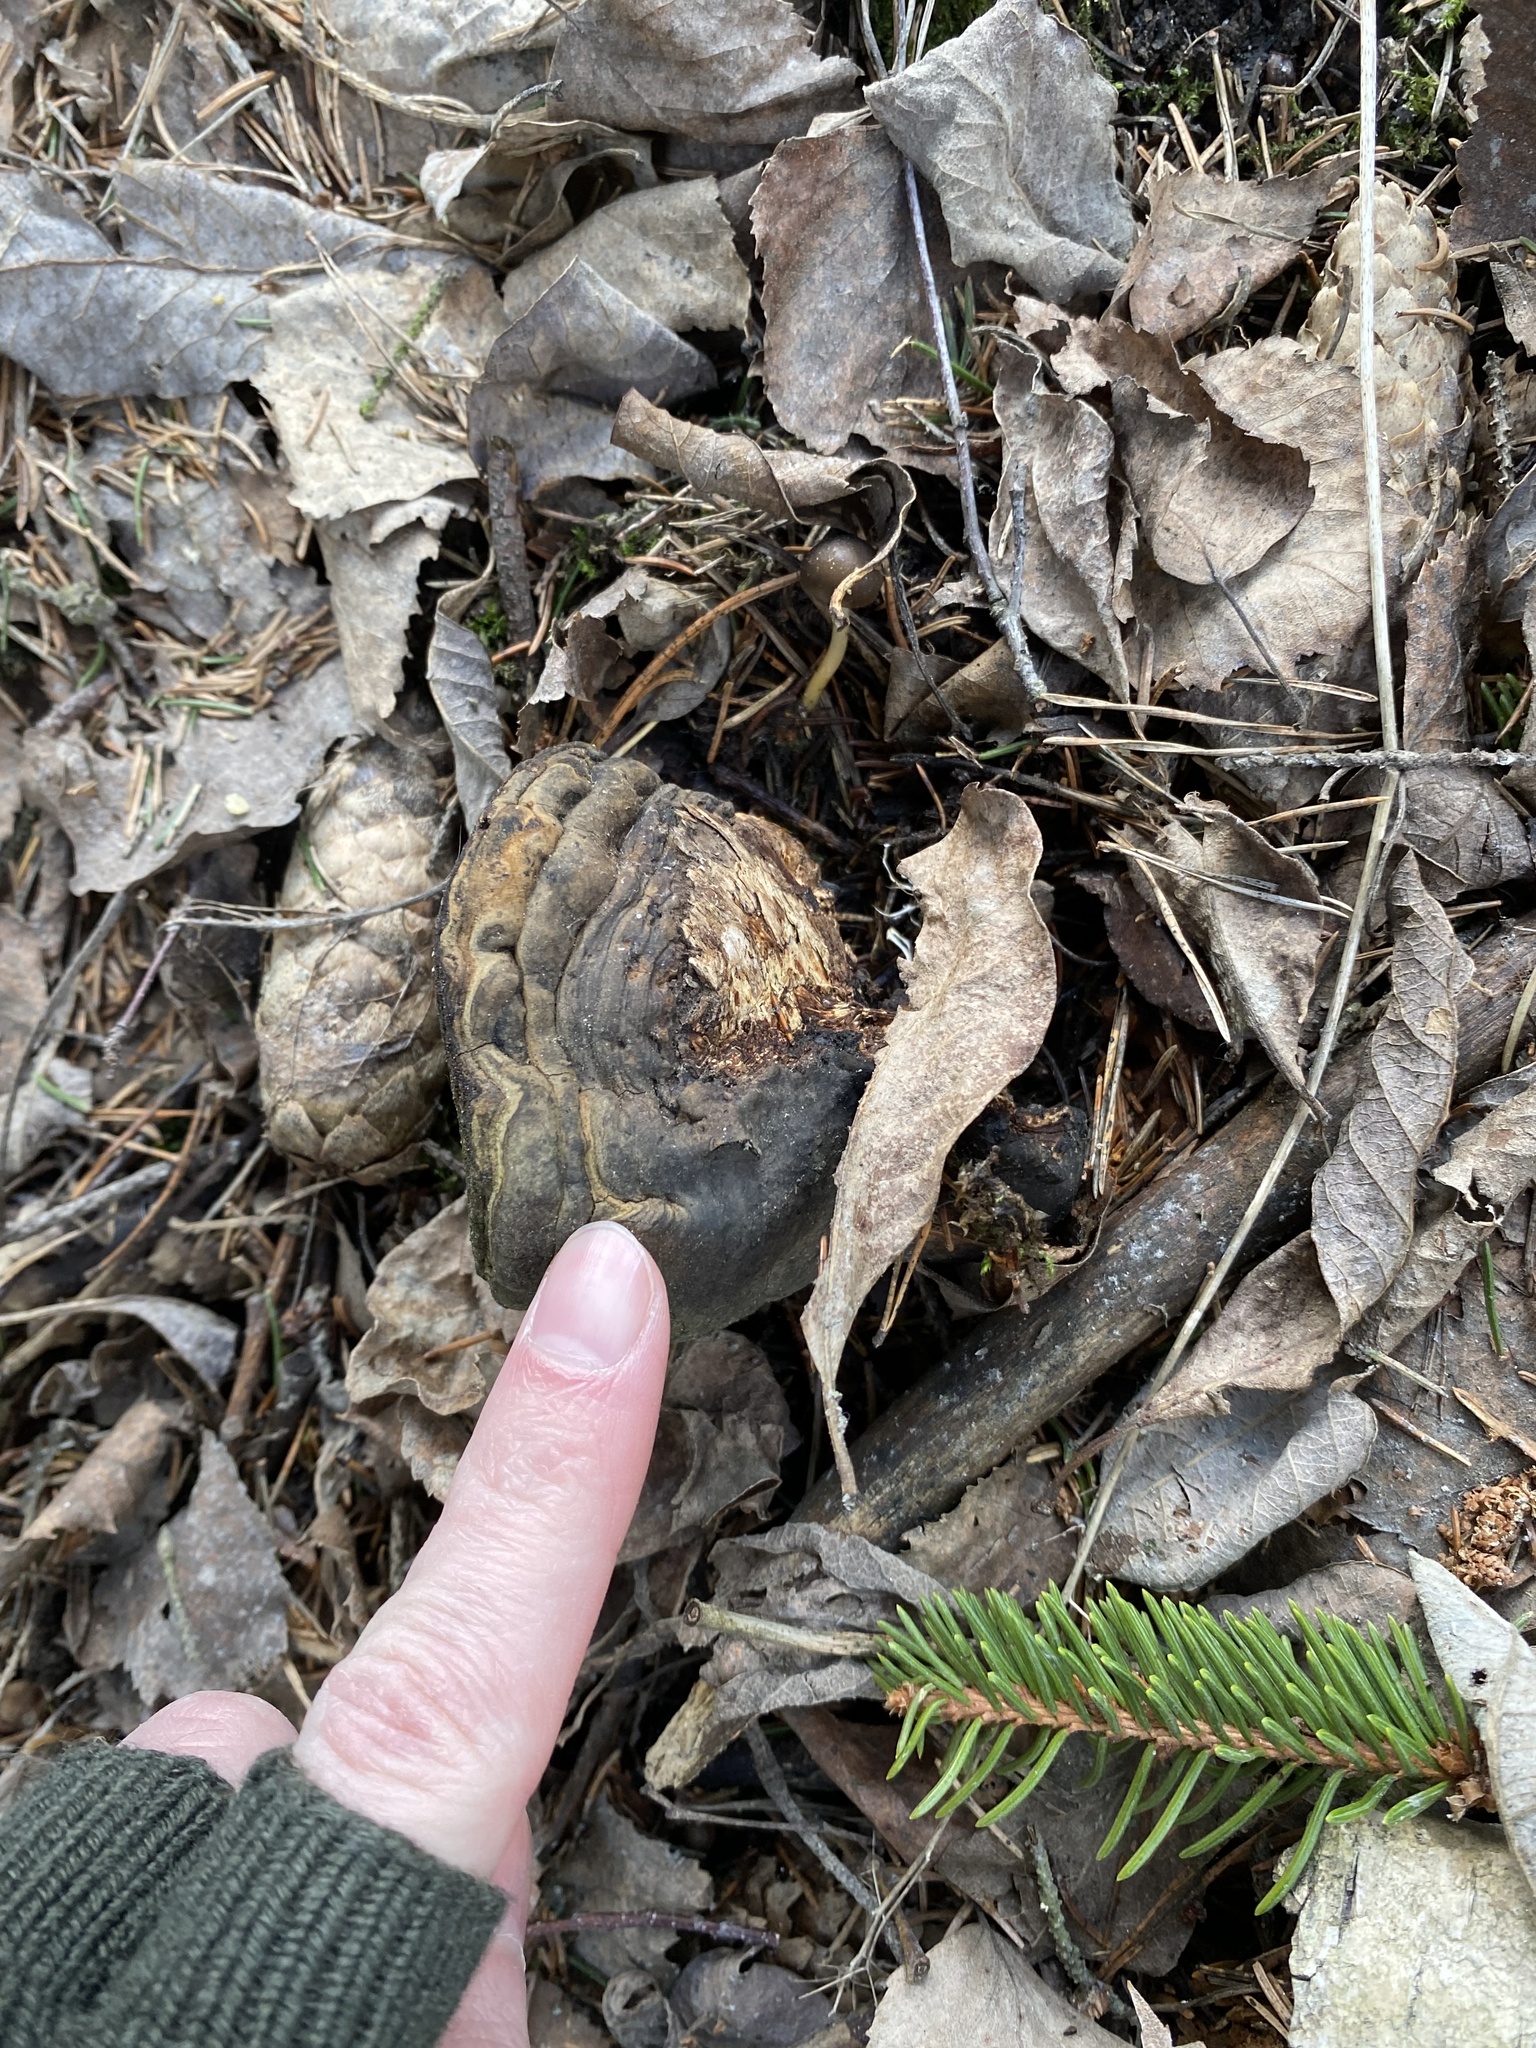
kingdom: Fungi
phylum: Basidiomycota
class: Agaricomycetes
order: Polyporales
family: Polyporaceae
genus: Fomes
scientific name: Fomes fomentarius
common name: Hoof fungus
